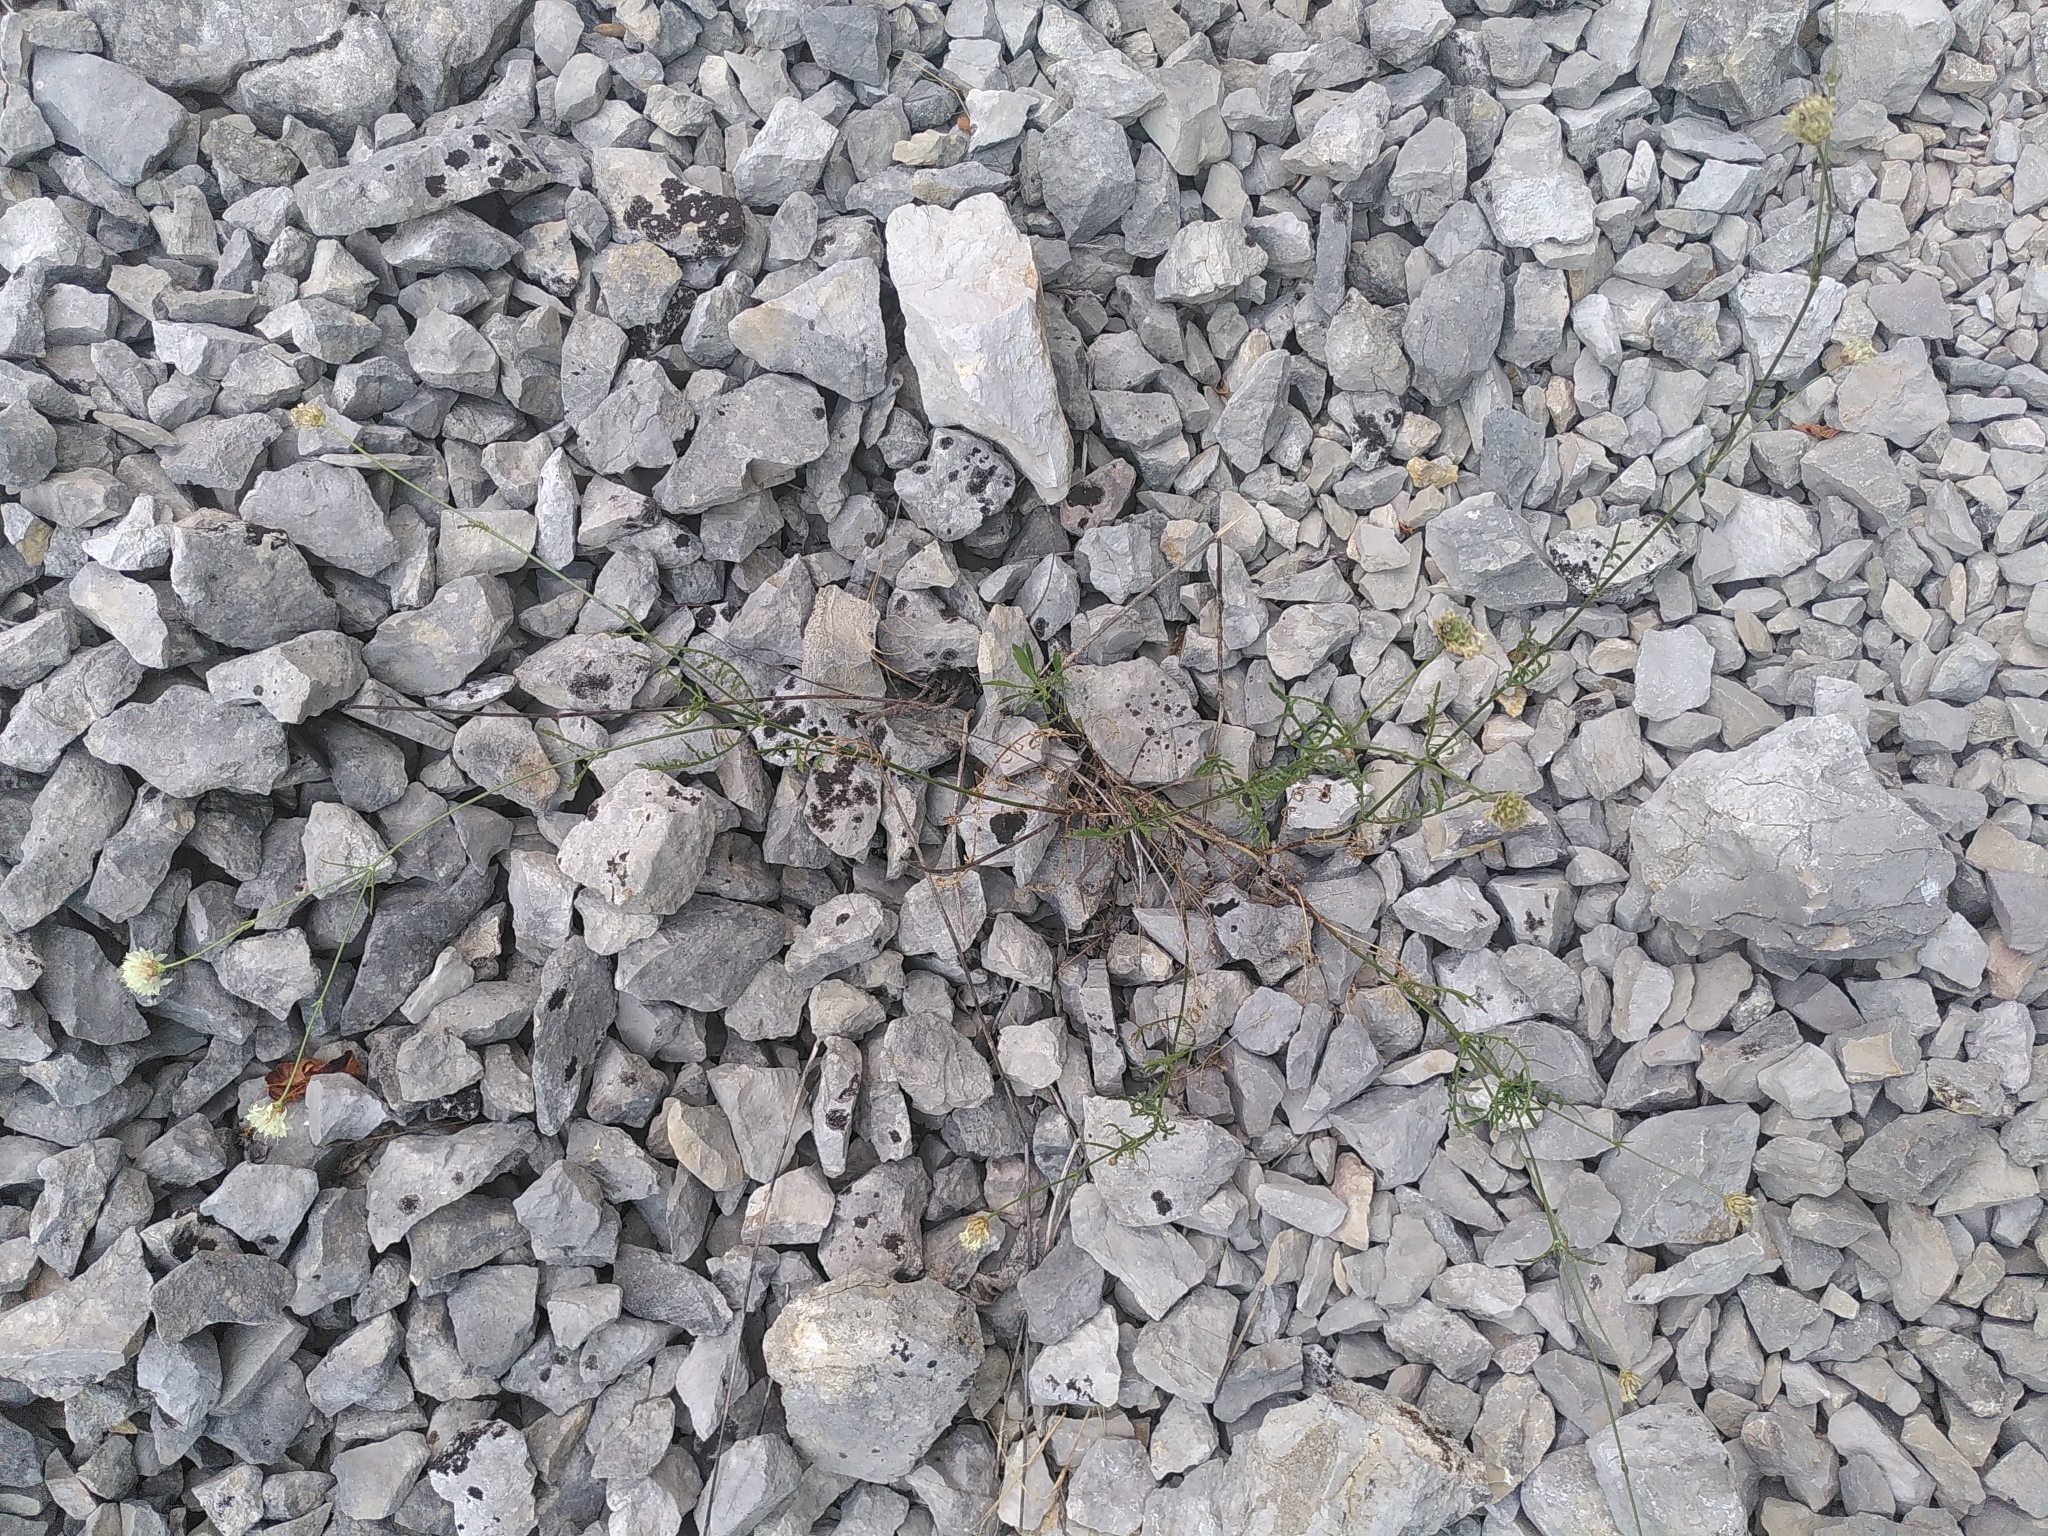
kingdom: Plantae
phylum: Tracheophyta
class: Magnoliopsida
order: Dipsacales
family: Caprifoliaceae
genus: Cephalaria
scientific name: Cephalaria leucantha
